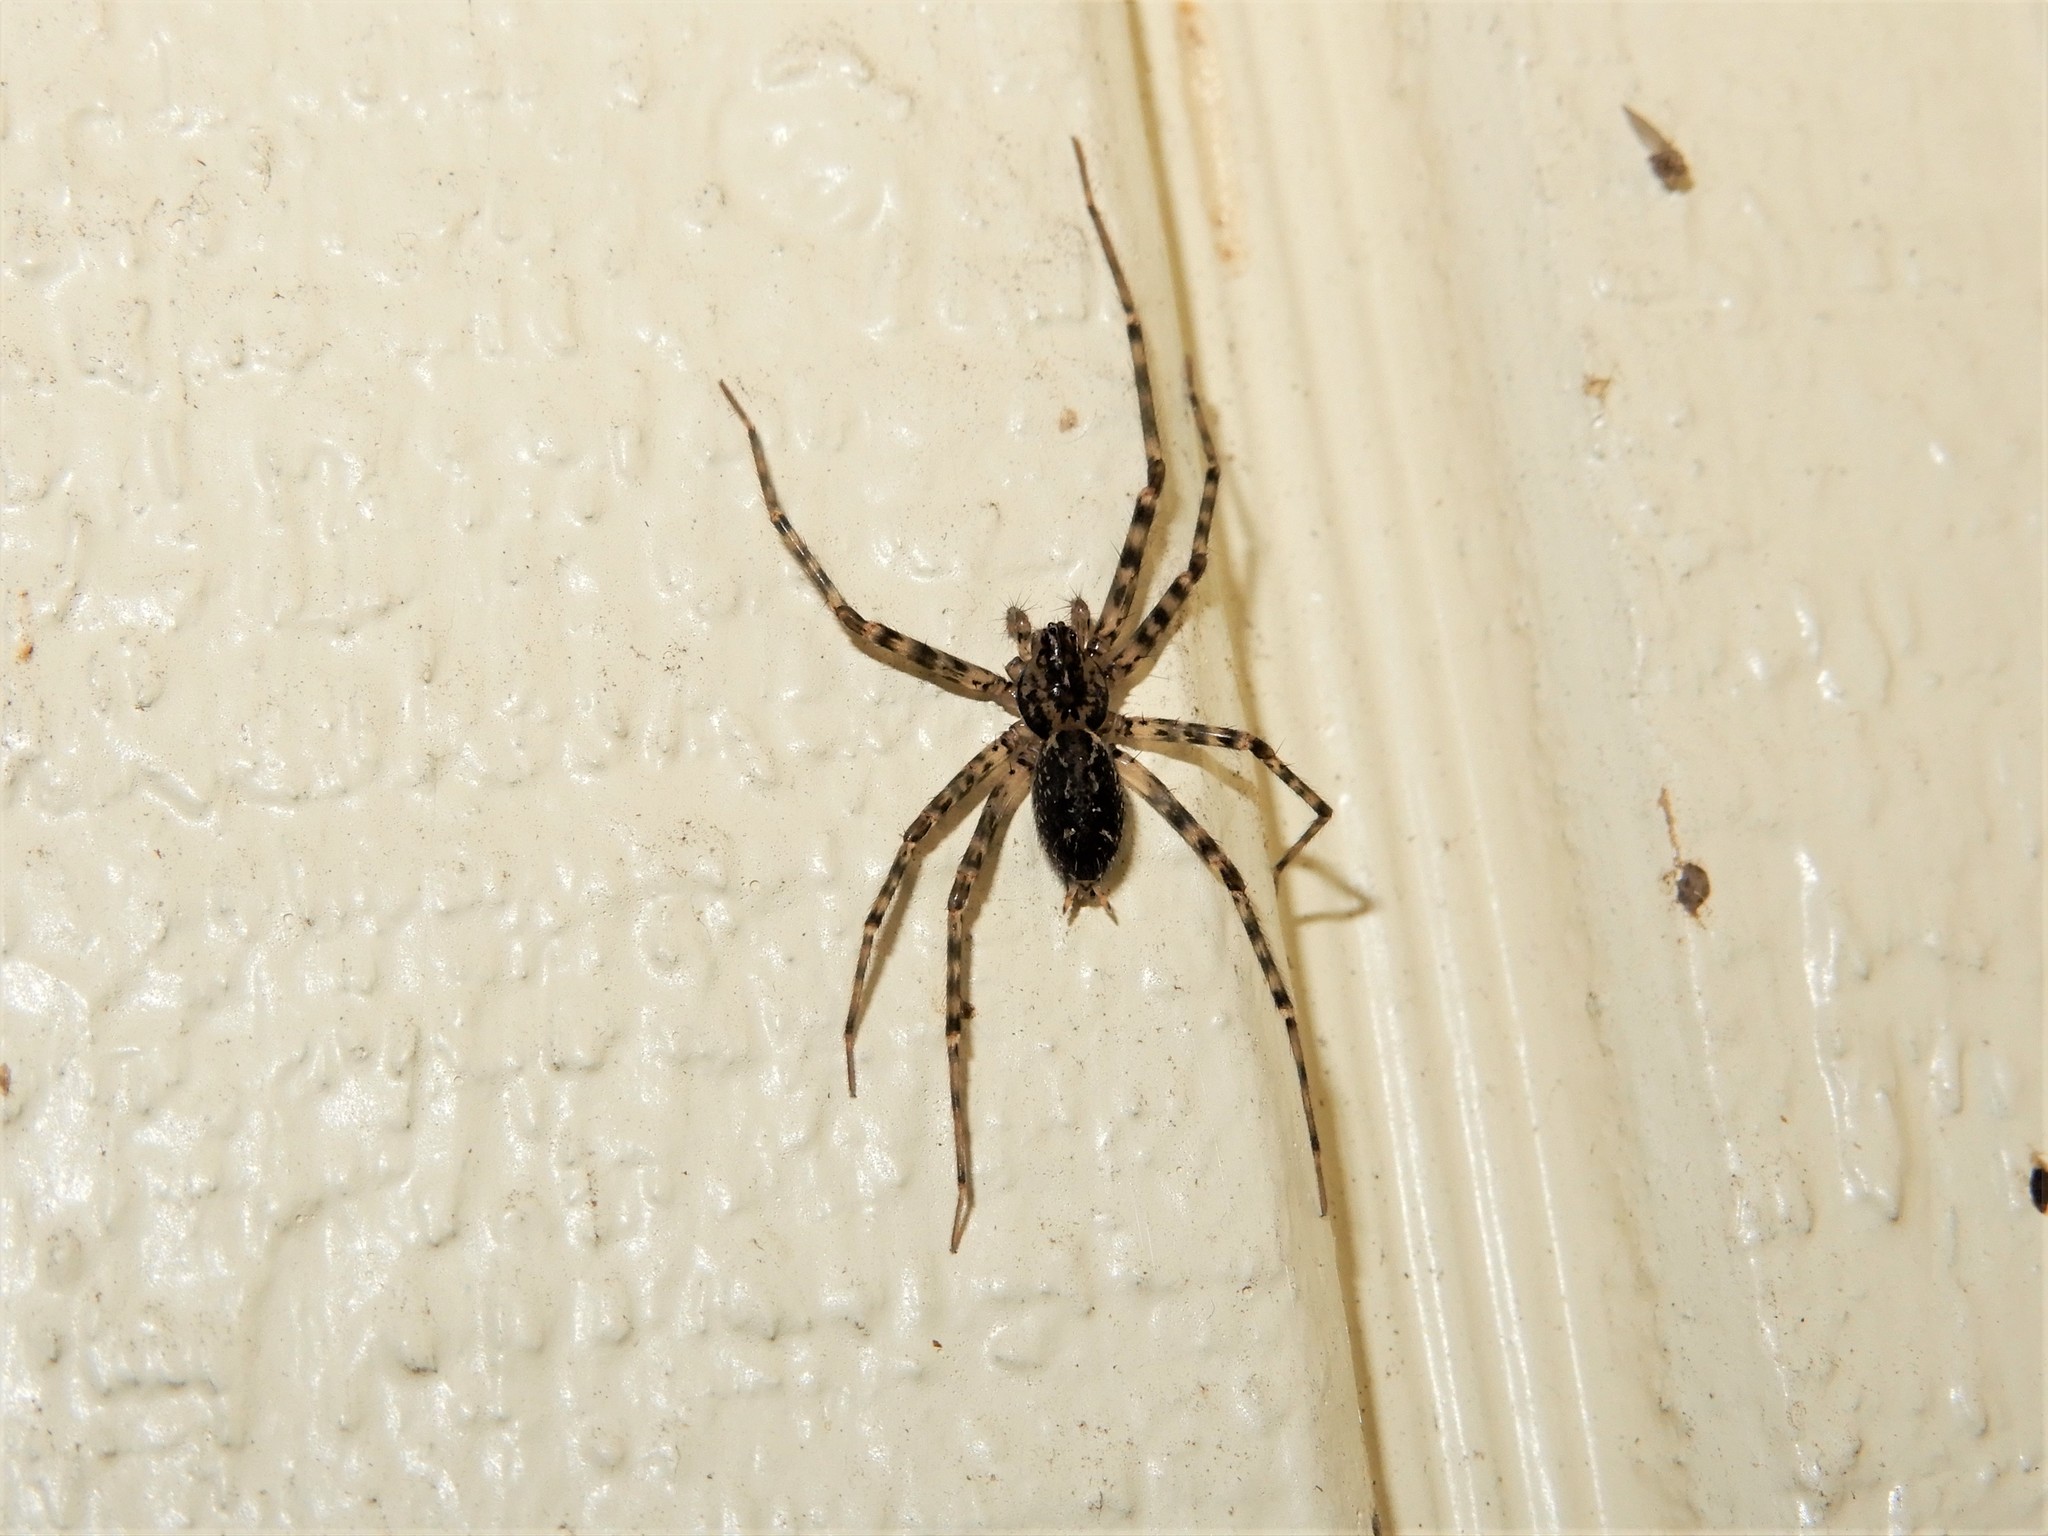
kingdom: Animalia
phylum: Arthropoda
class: Arachnida
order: Araneae
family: Stiphidiidae
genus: Stiphidion
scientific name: Stiphidion facetum
